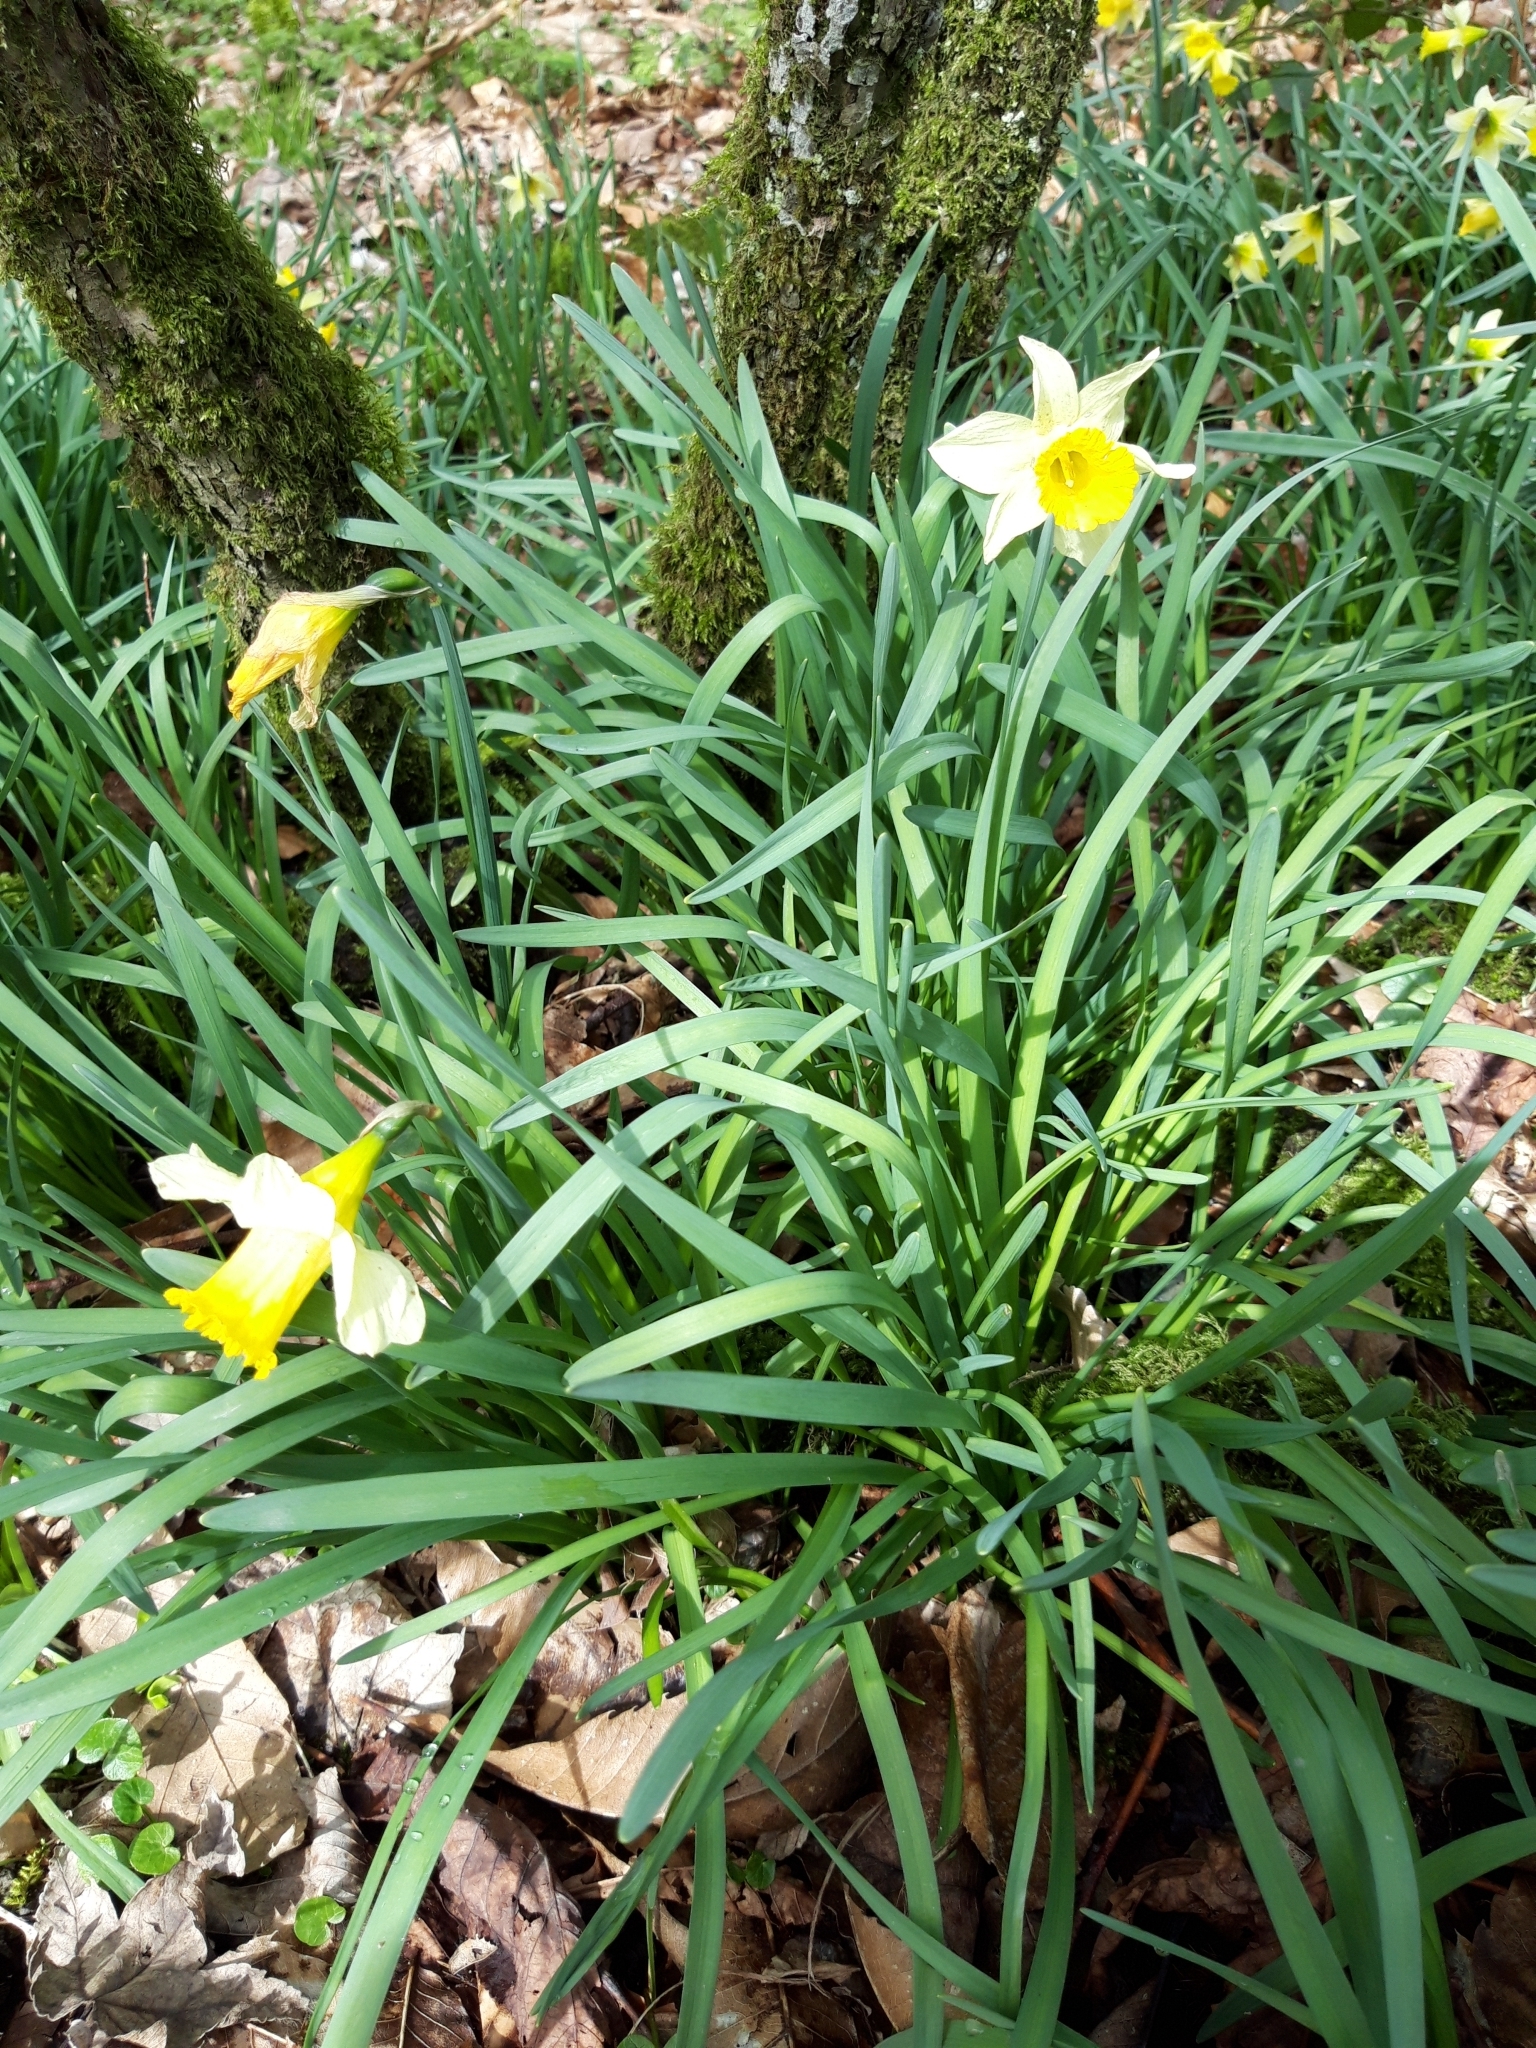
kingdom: Plantae
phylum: Tracheophyta
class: Liliopsida
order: Asparagales
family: Amaryllidaceae
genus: Narcissus
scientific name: Narcissus pseudonarcissus
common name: Daffodil
